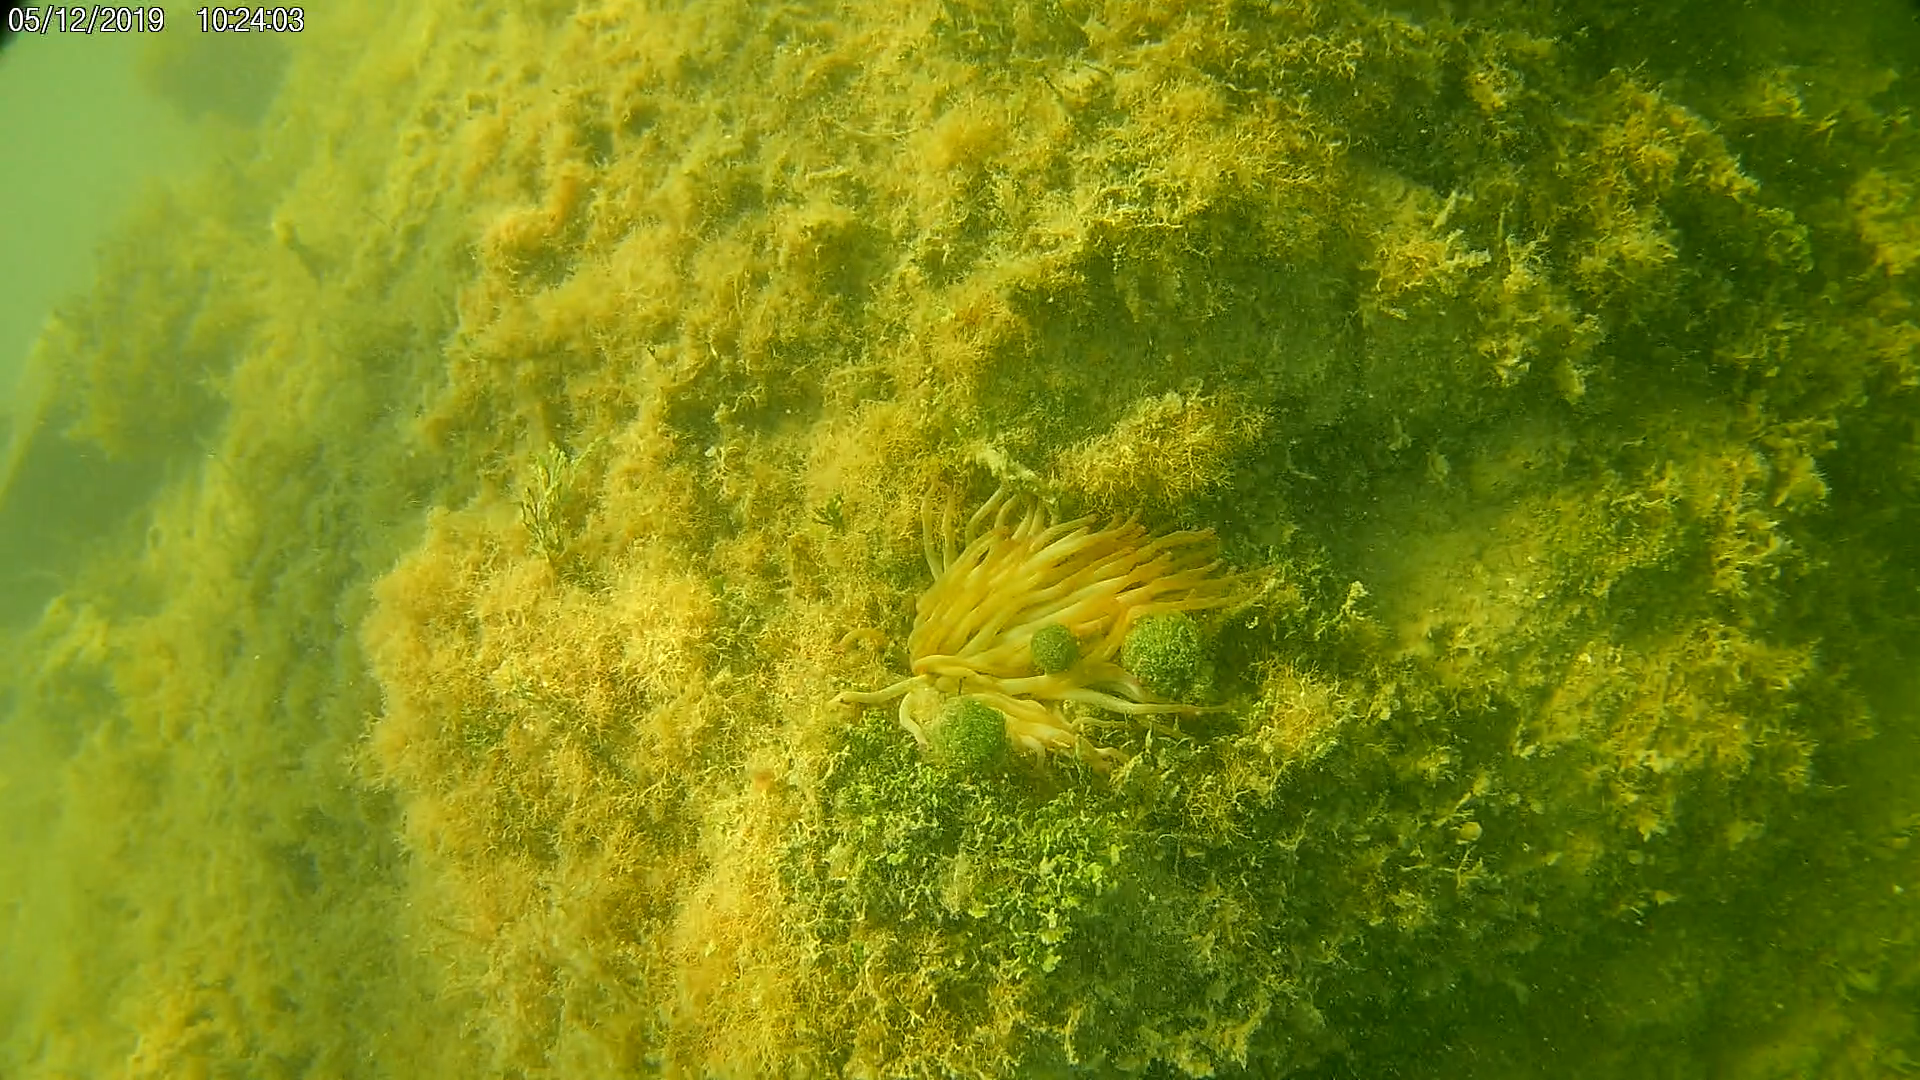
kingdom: Animalia
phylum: Cnidaria
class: Anthozoa
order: Actiniaria
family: Actiniidae
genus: Condylactis
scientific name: Condylactis gigantea
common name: Giant caribbean anemone
